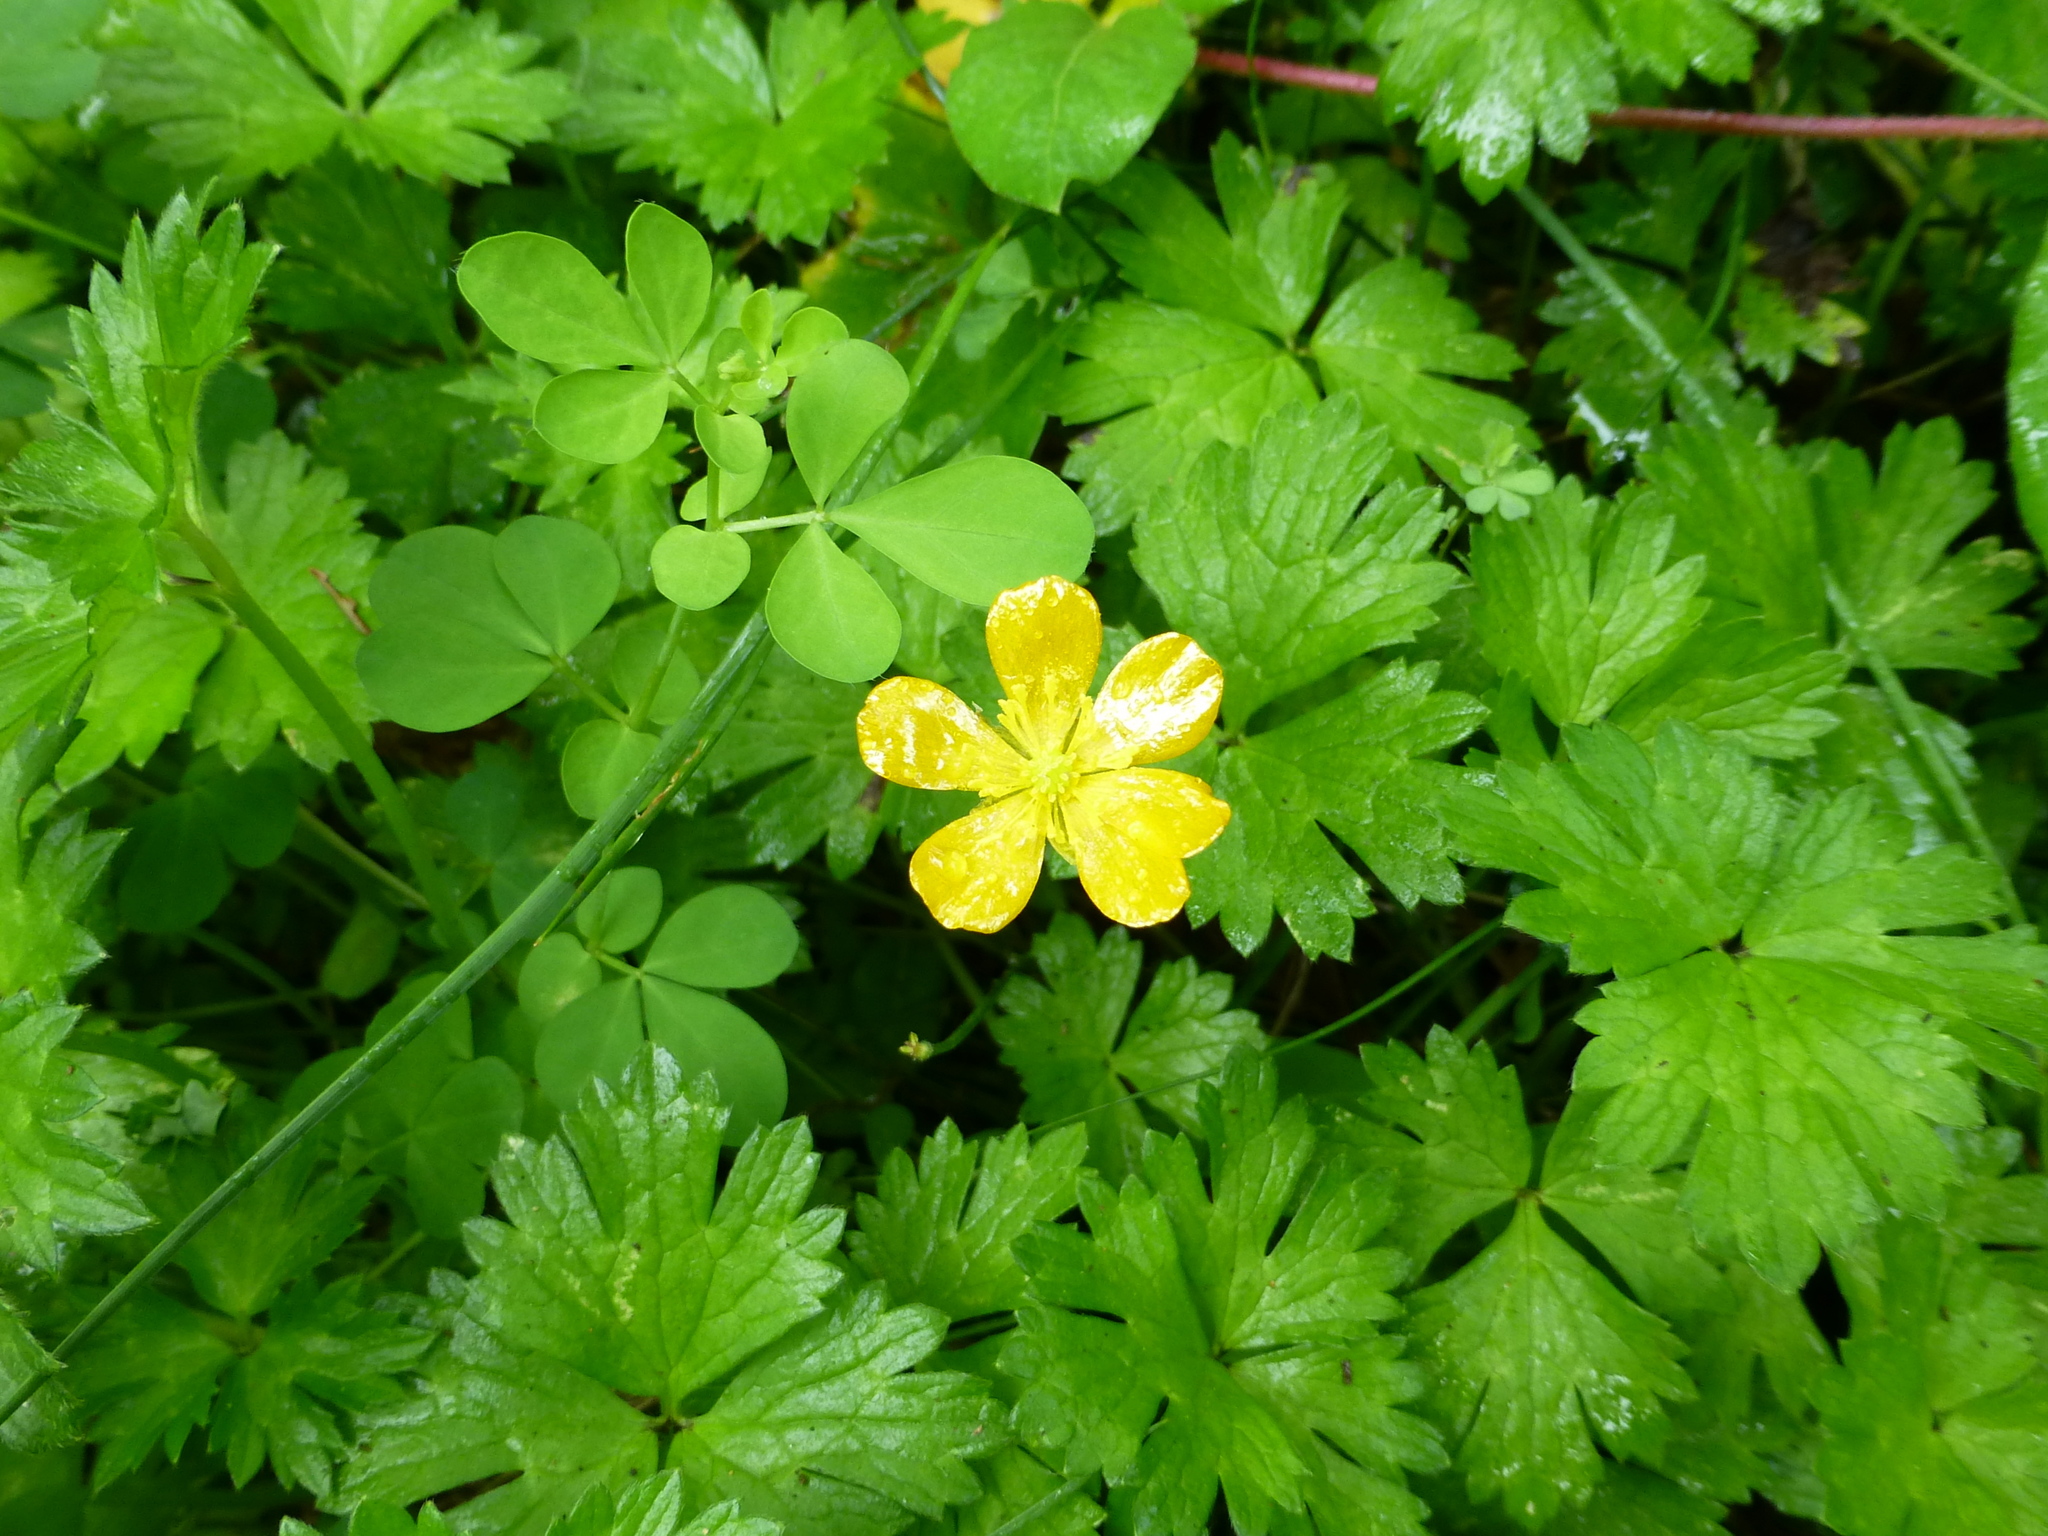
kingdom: Plantae
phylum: Tracheophyta
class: Magnoliopsida
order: Ranunculales
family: Ranunculaceae
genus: Ranunculus
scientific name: Ranunculus repens
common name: Creeping buttercup
